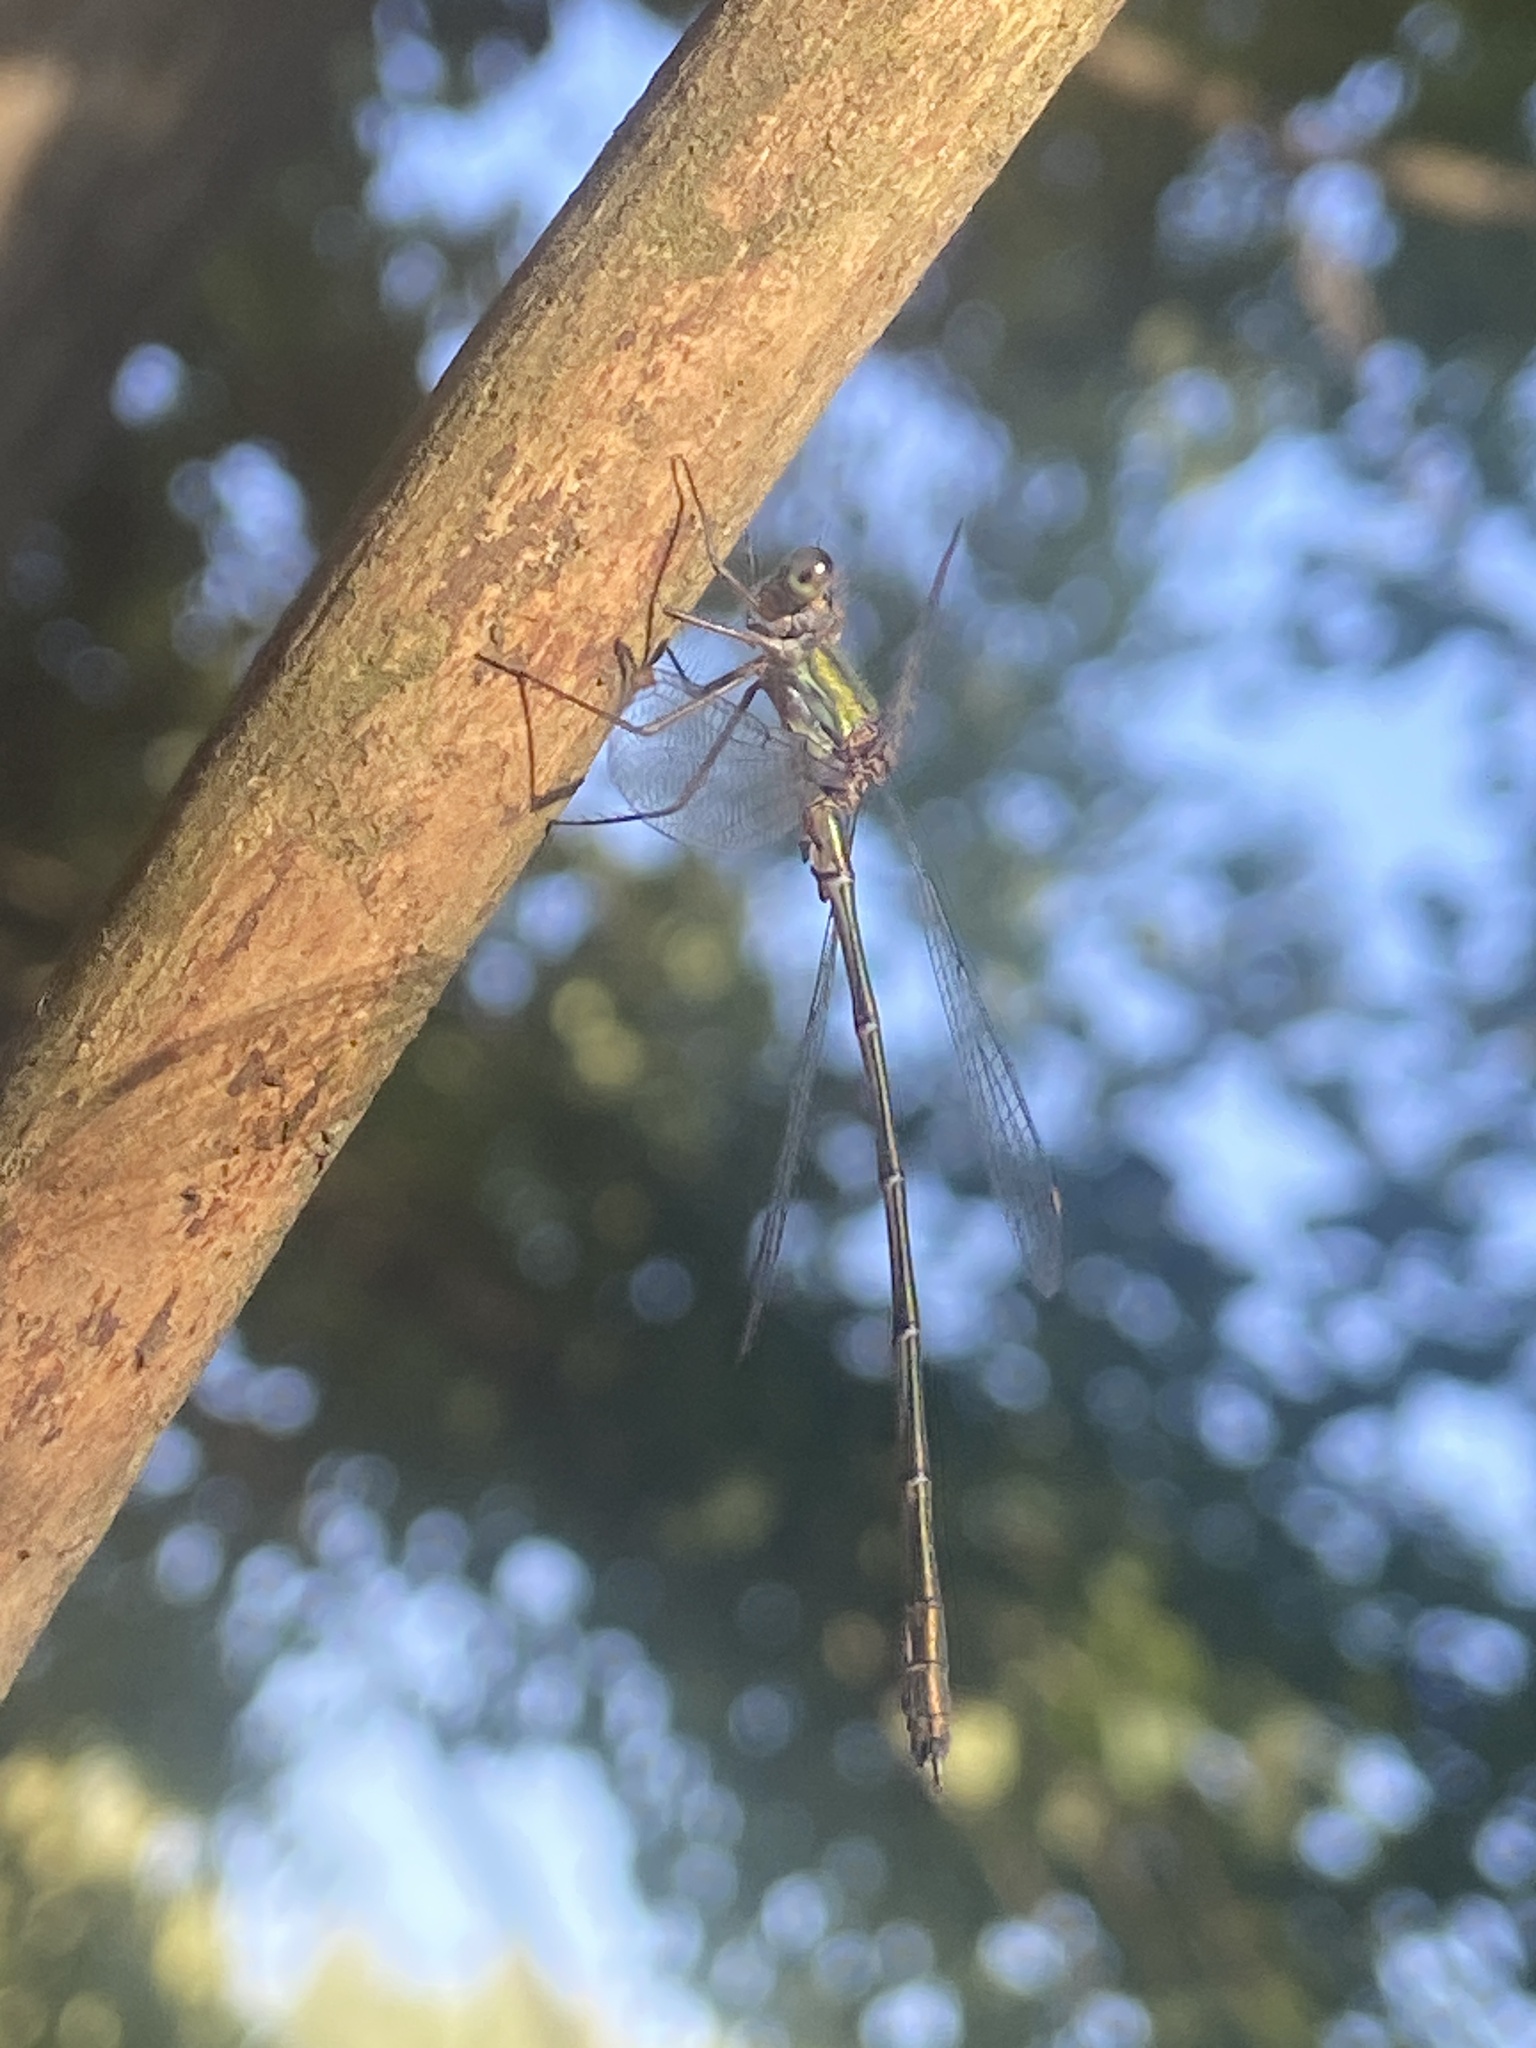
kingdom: Animalia
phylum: Arthropoda
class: Insecta
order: Odonata
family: Lestidae
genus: Chalcolestes
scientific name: Chalcolestes viridis
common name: Green emerald damselfly
